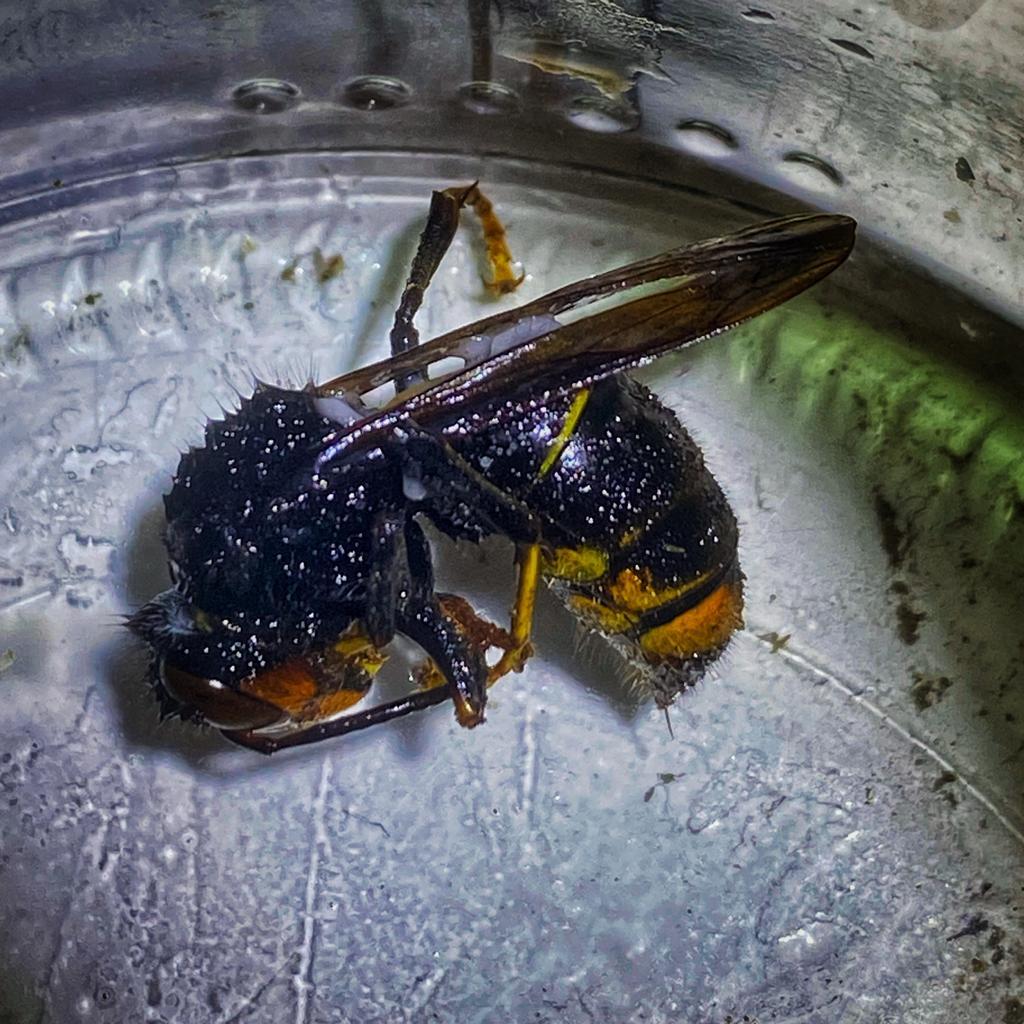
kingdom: Animalia
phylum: Arthropoda
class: Insecta
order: Hymenoptera
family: Vespidae
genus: Vespa
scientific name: Vespa velutina
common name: Asian hornet
